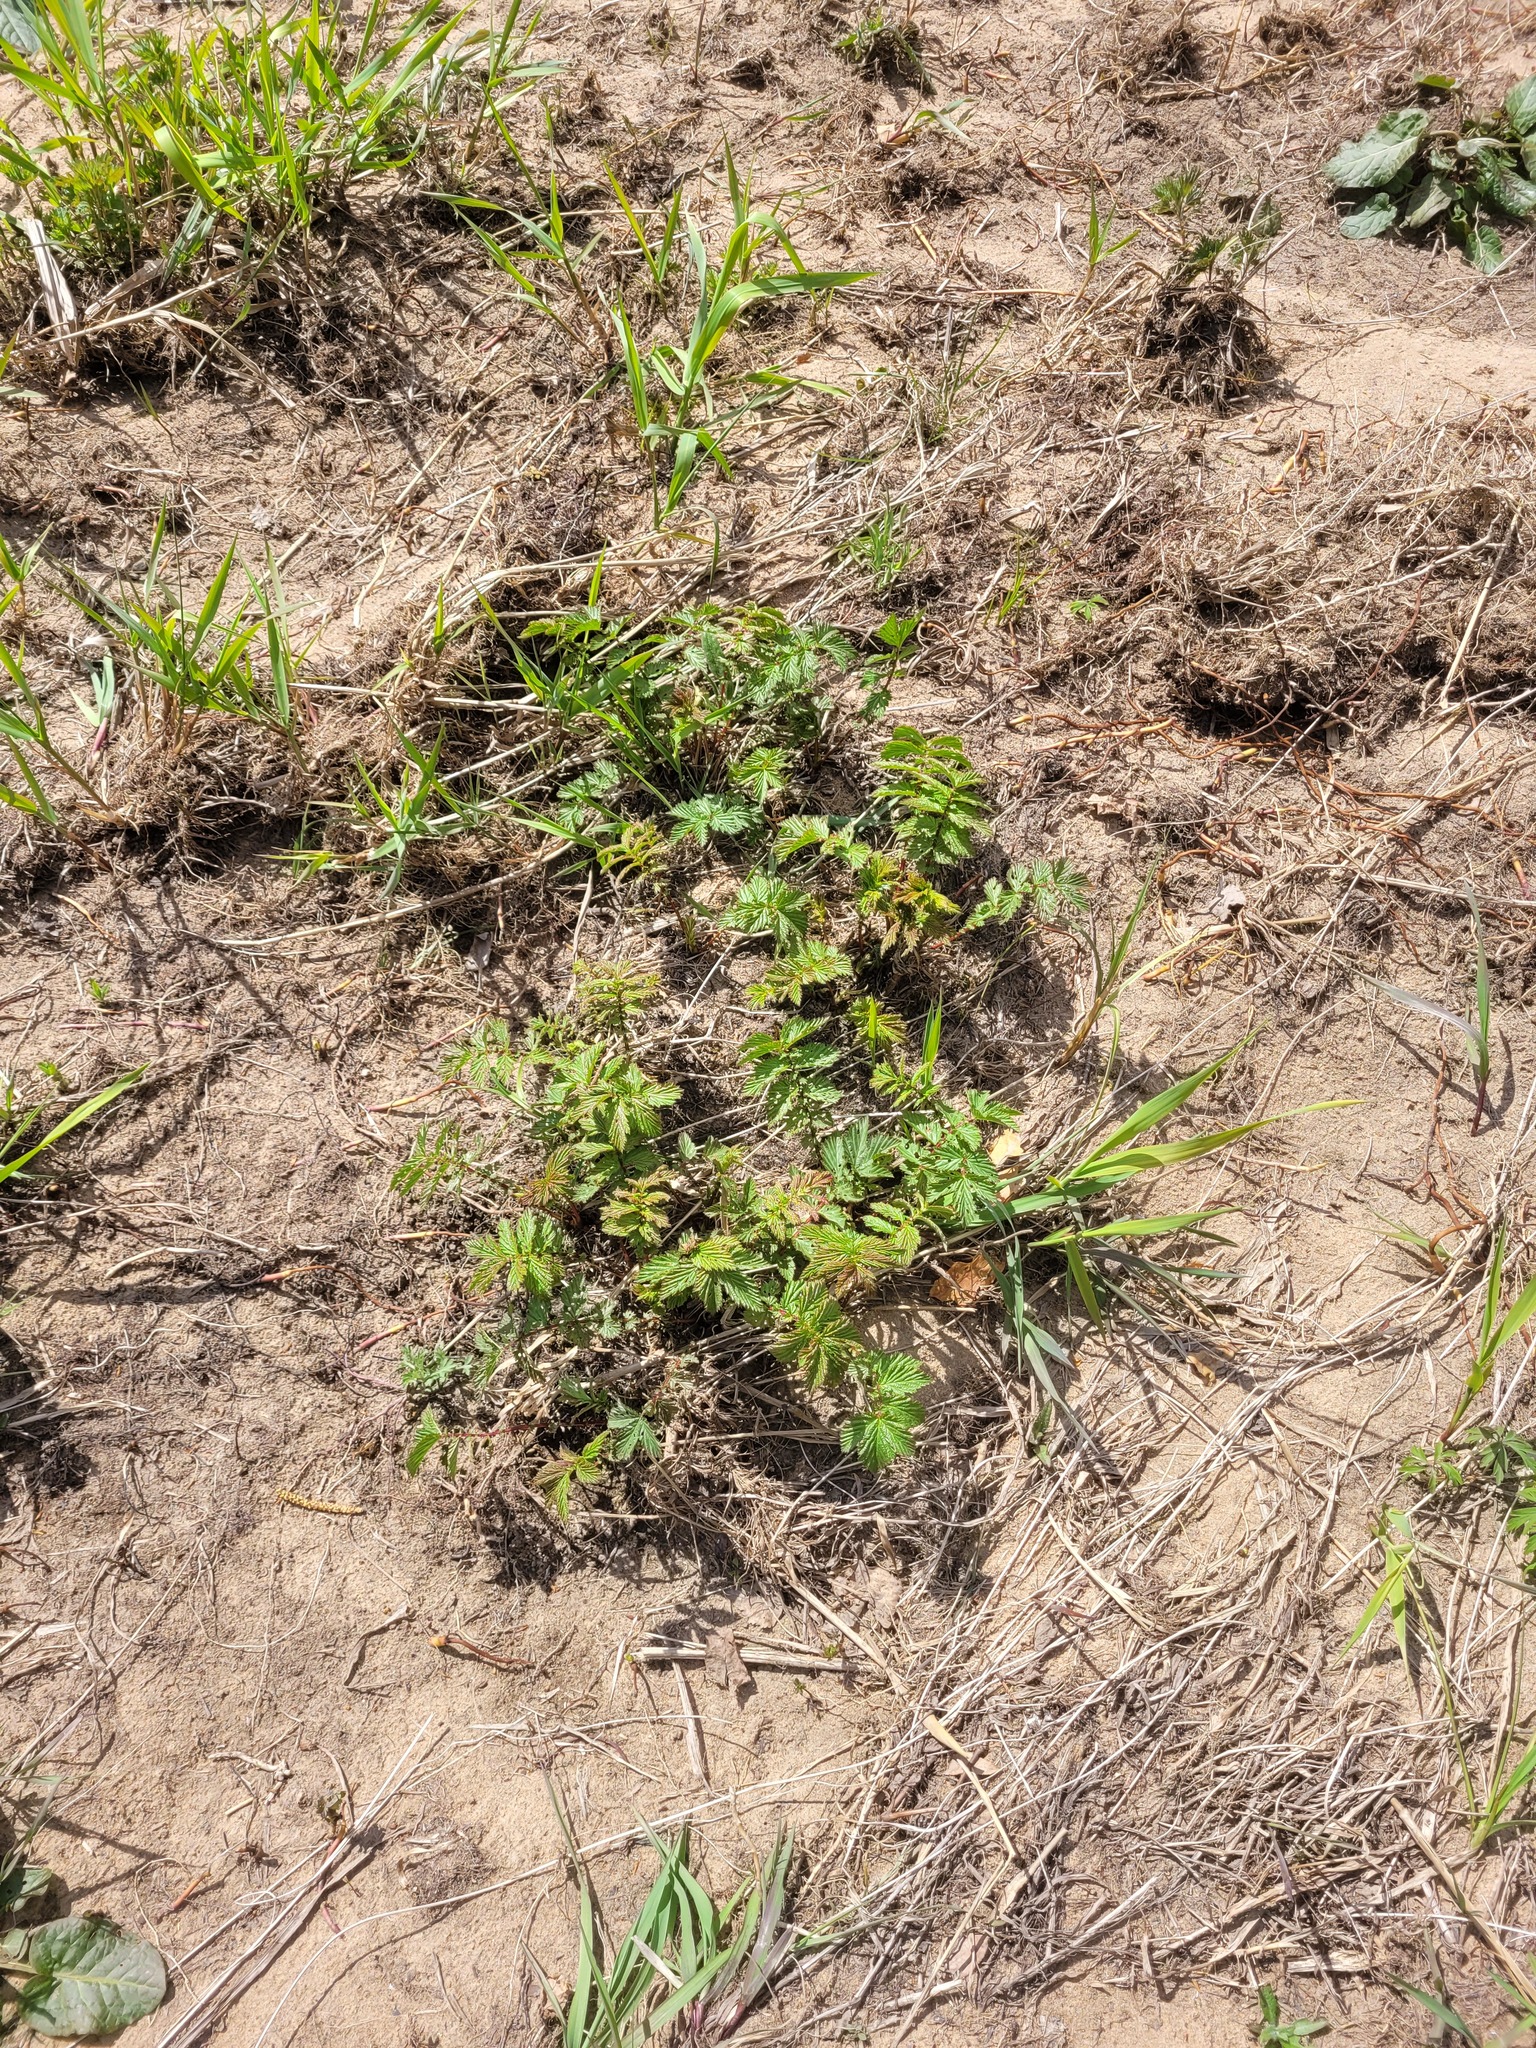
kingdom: Plantae
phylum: Tracheophyta
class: Magnoliopsida
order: Rosales
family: Rosaceae
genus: Filipendula
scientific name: Filipendula ulmaria
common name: Meadowsweet
